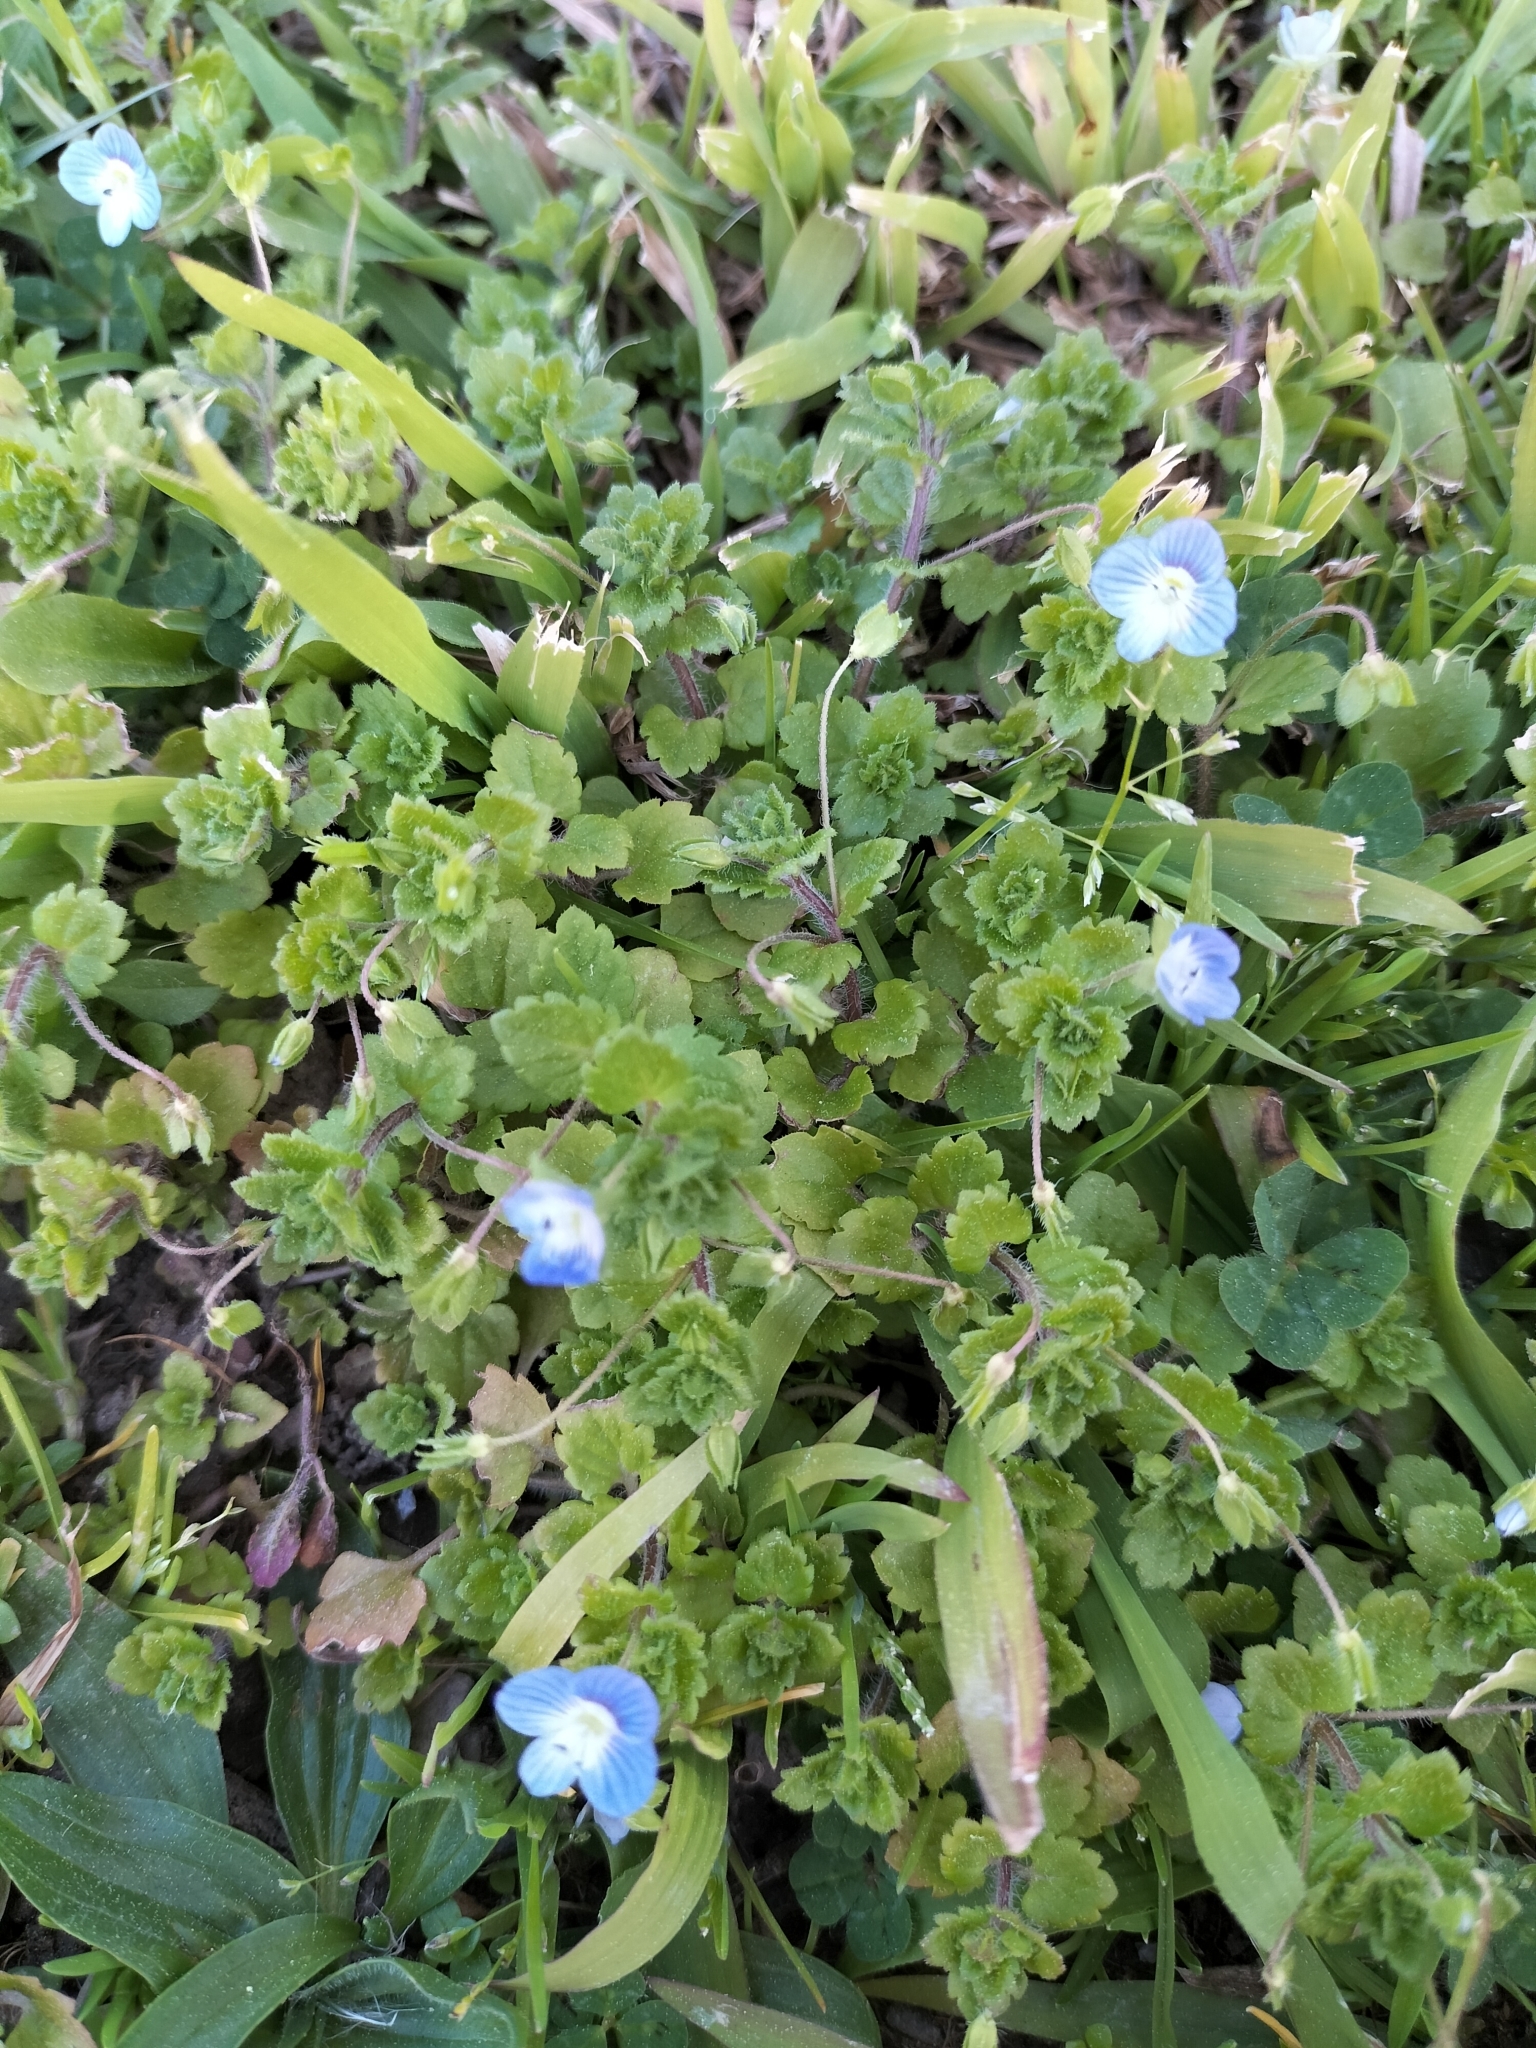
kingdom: Plantae
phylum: Tracheophyta
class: Magnoliopsida
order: Lamiales
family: Plantaginaceae
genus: Veronica
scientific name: Veronica persica
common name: Common field-speedwell
